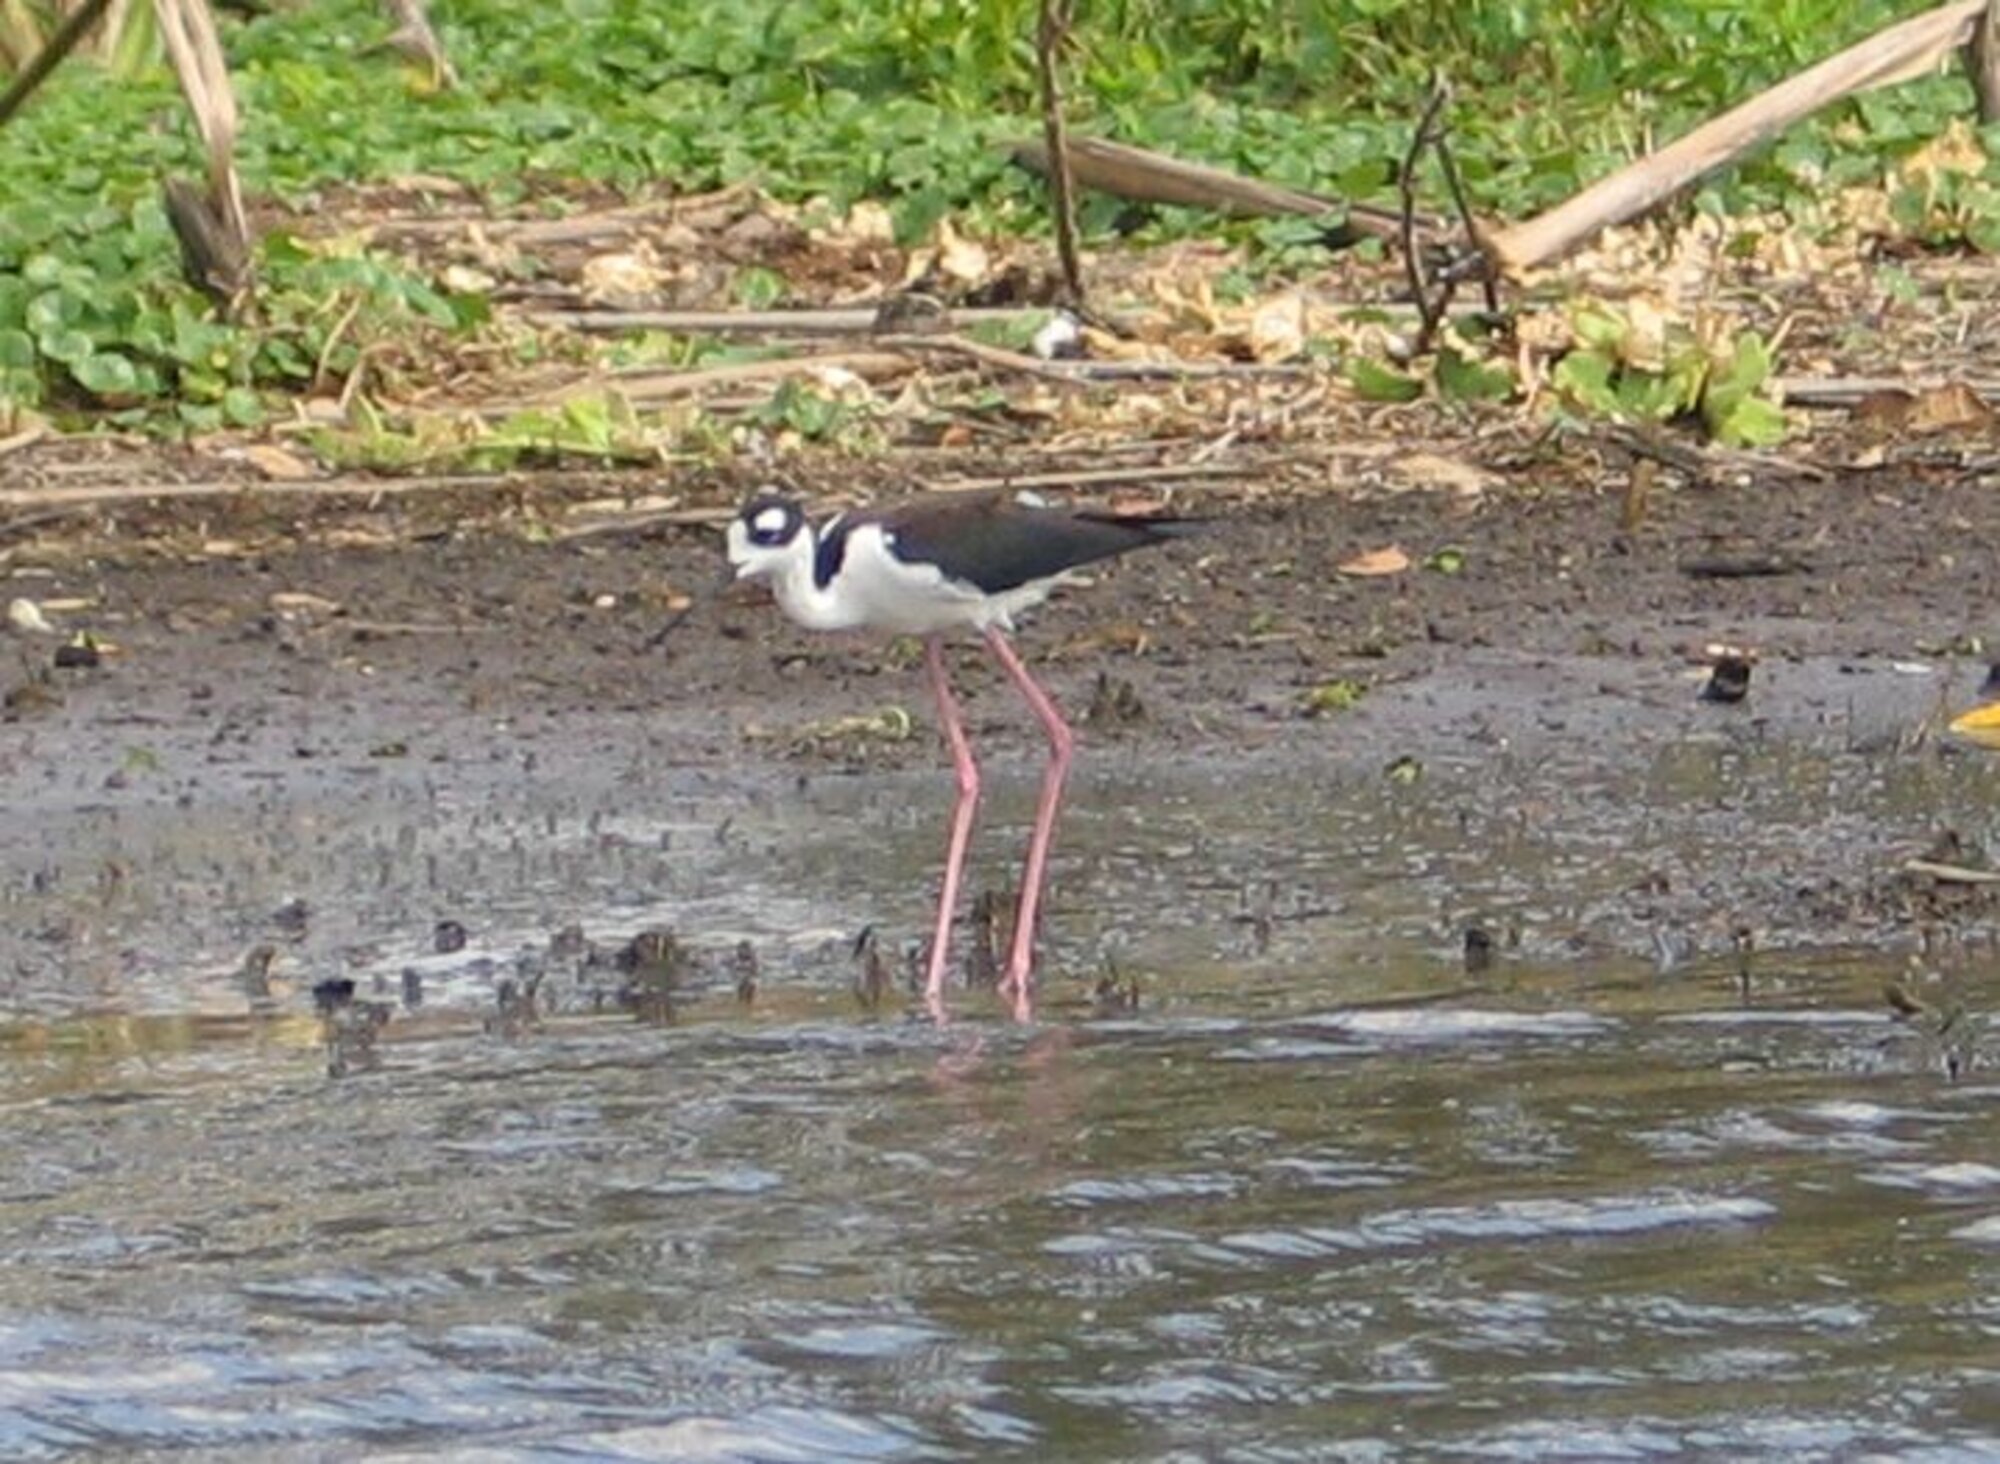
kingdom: Animalia
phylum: Chordata
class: Aves
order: Charadriiformes
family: Recurvirostridae
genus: Himantopus
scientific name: Himantopus mexicanus
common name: Black-necked stilt
